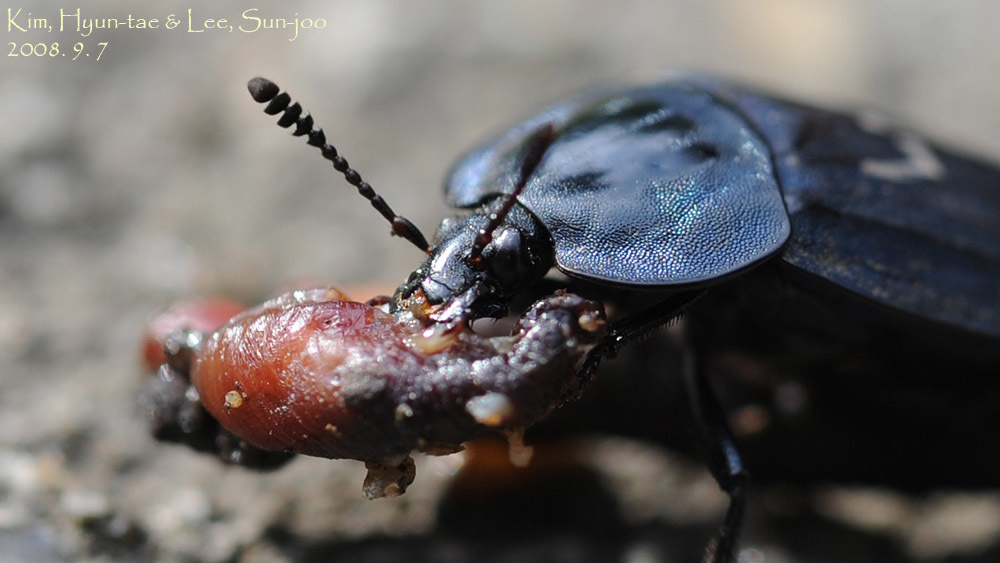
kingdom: Animalia
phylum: Arthropoda
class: Insecta
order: Coleoptera
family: Silphidae
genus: Eusilpha
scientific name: Eusilpha
